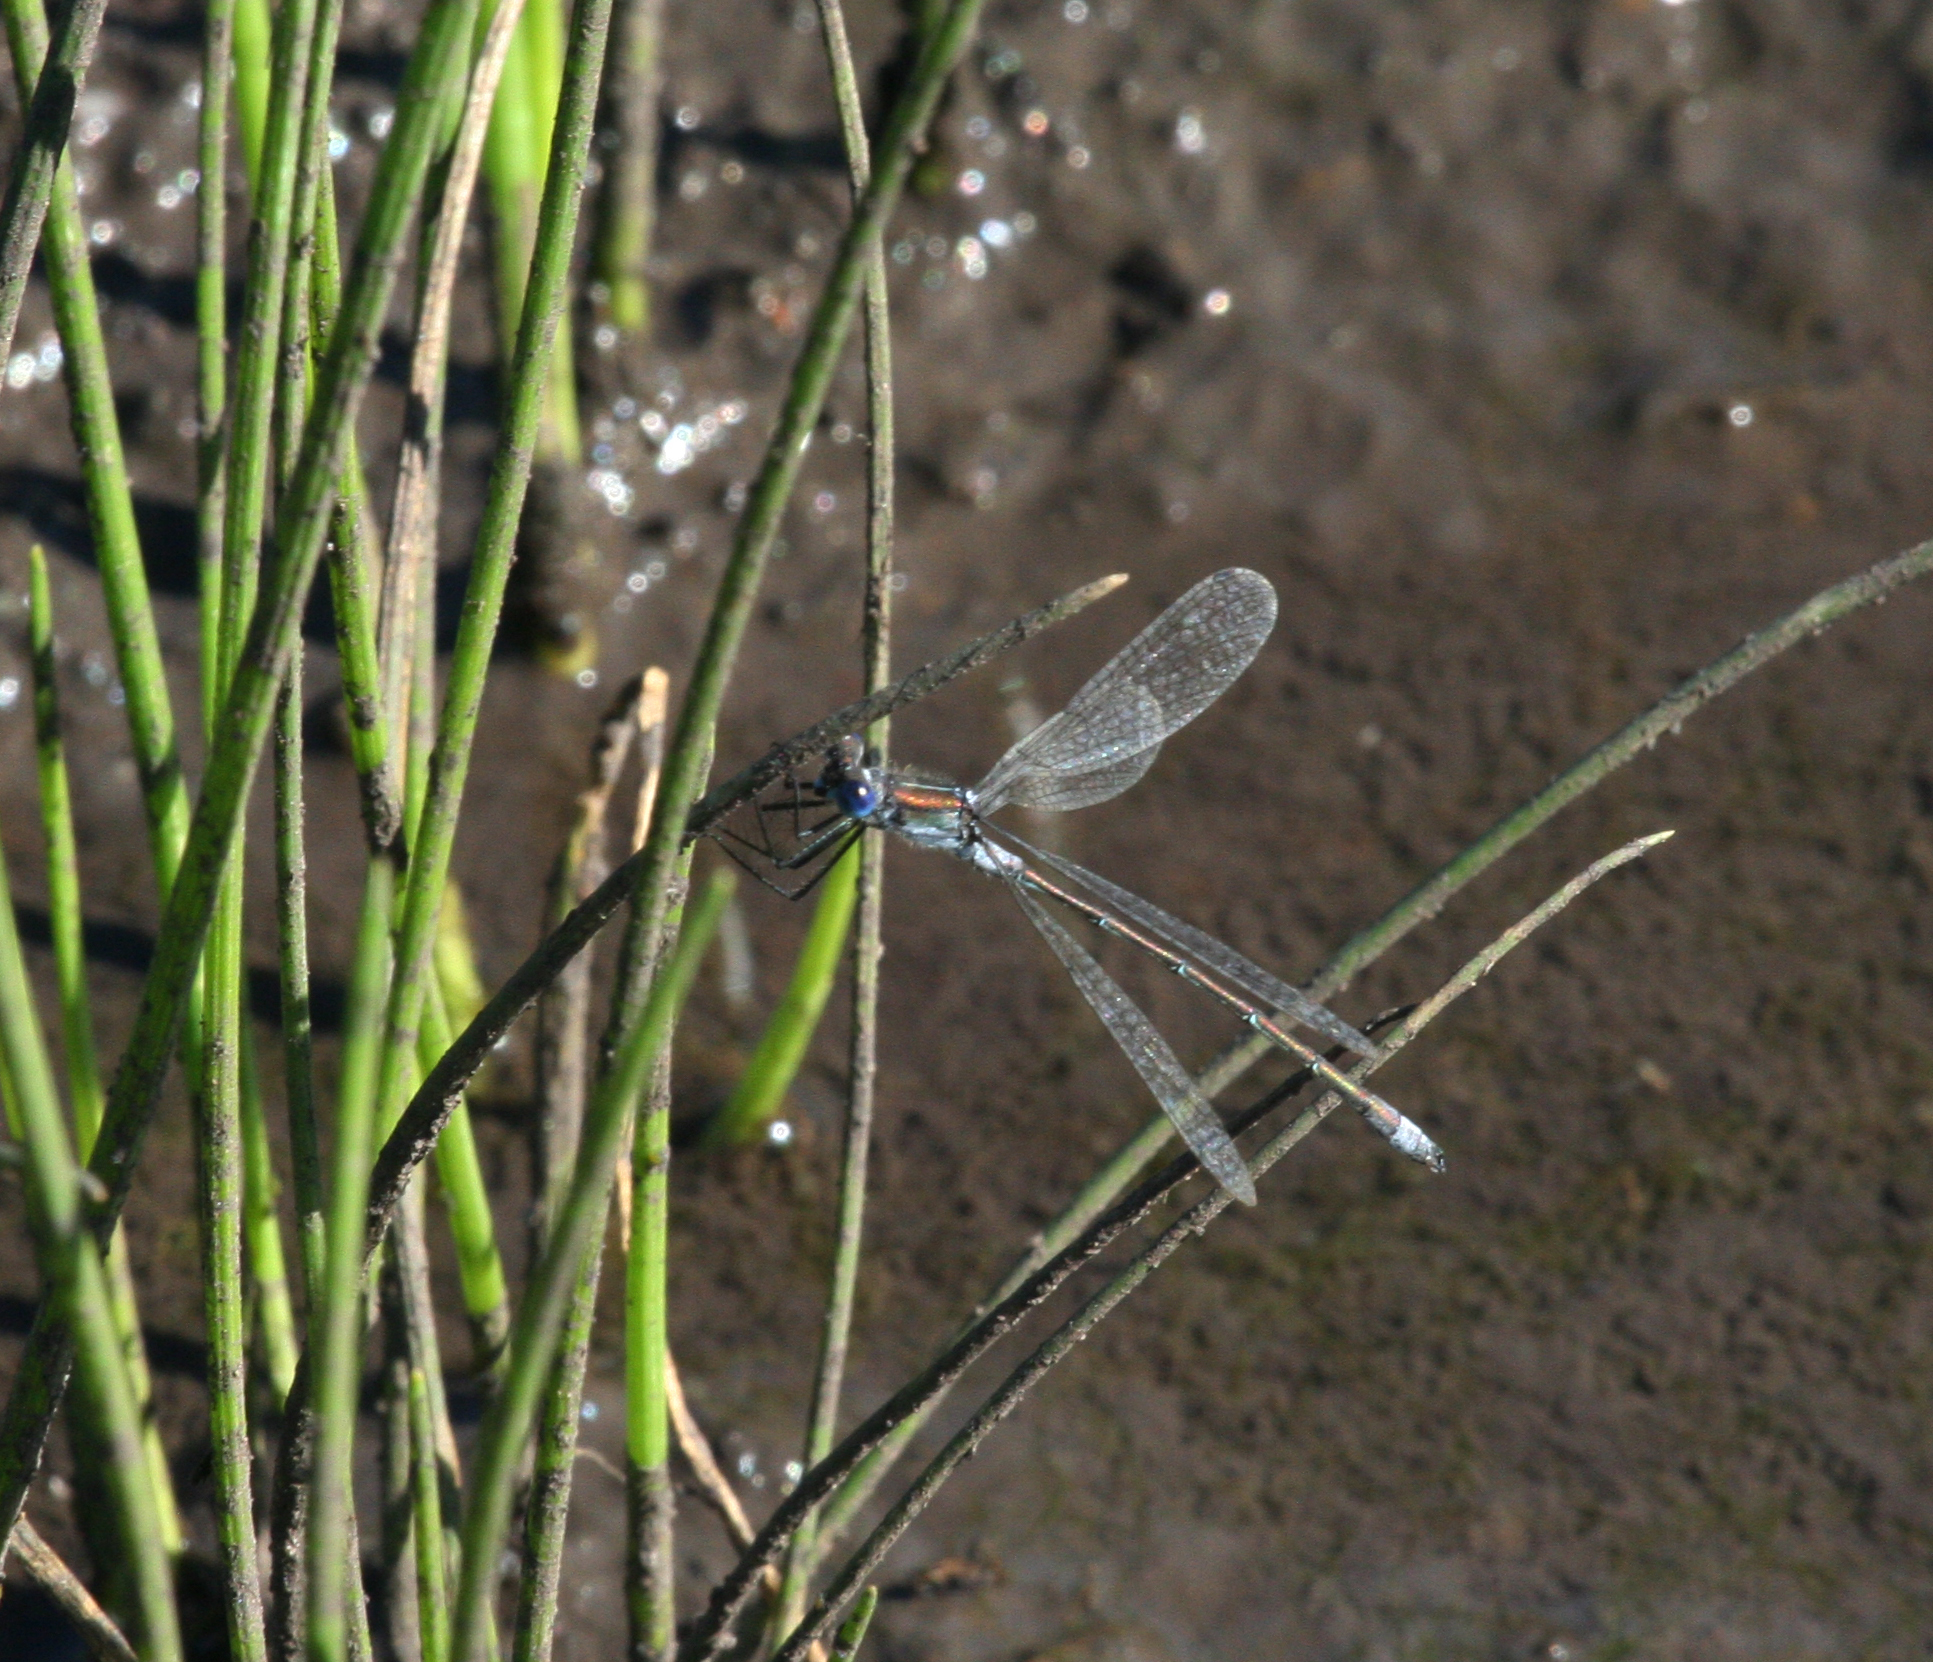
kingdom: Animalia
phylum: Arthropoda
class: Insecta
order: Odonata
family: Lestidae
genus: Lestes
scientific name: Lestes sponsa
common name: Common spreadwing
